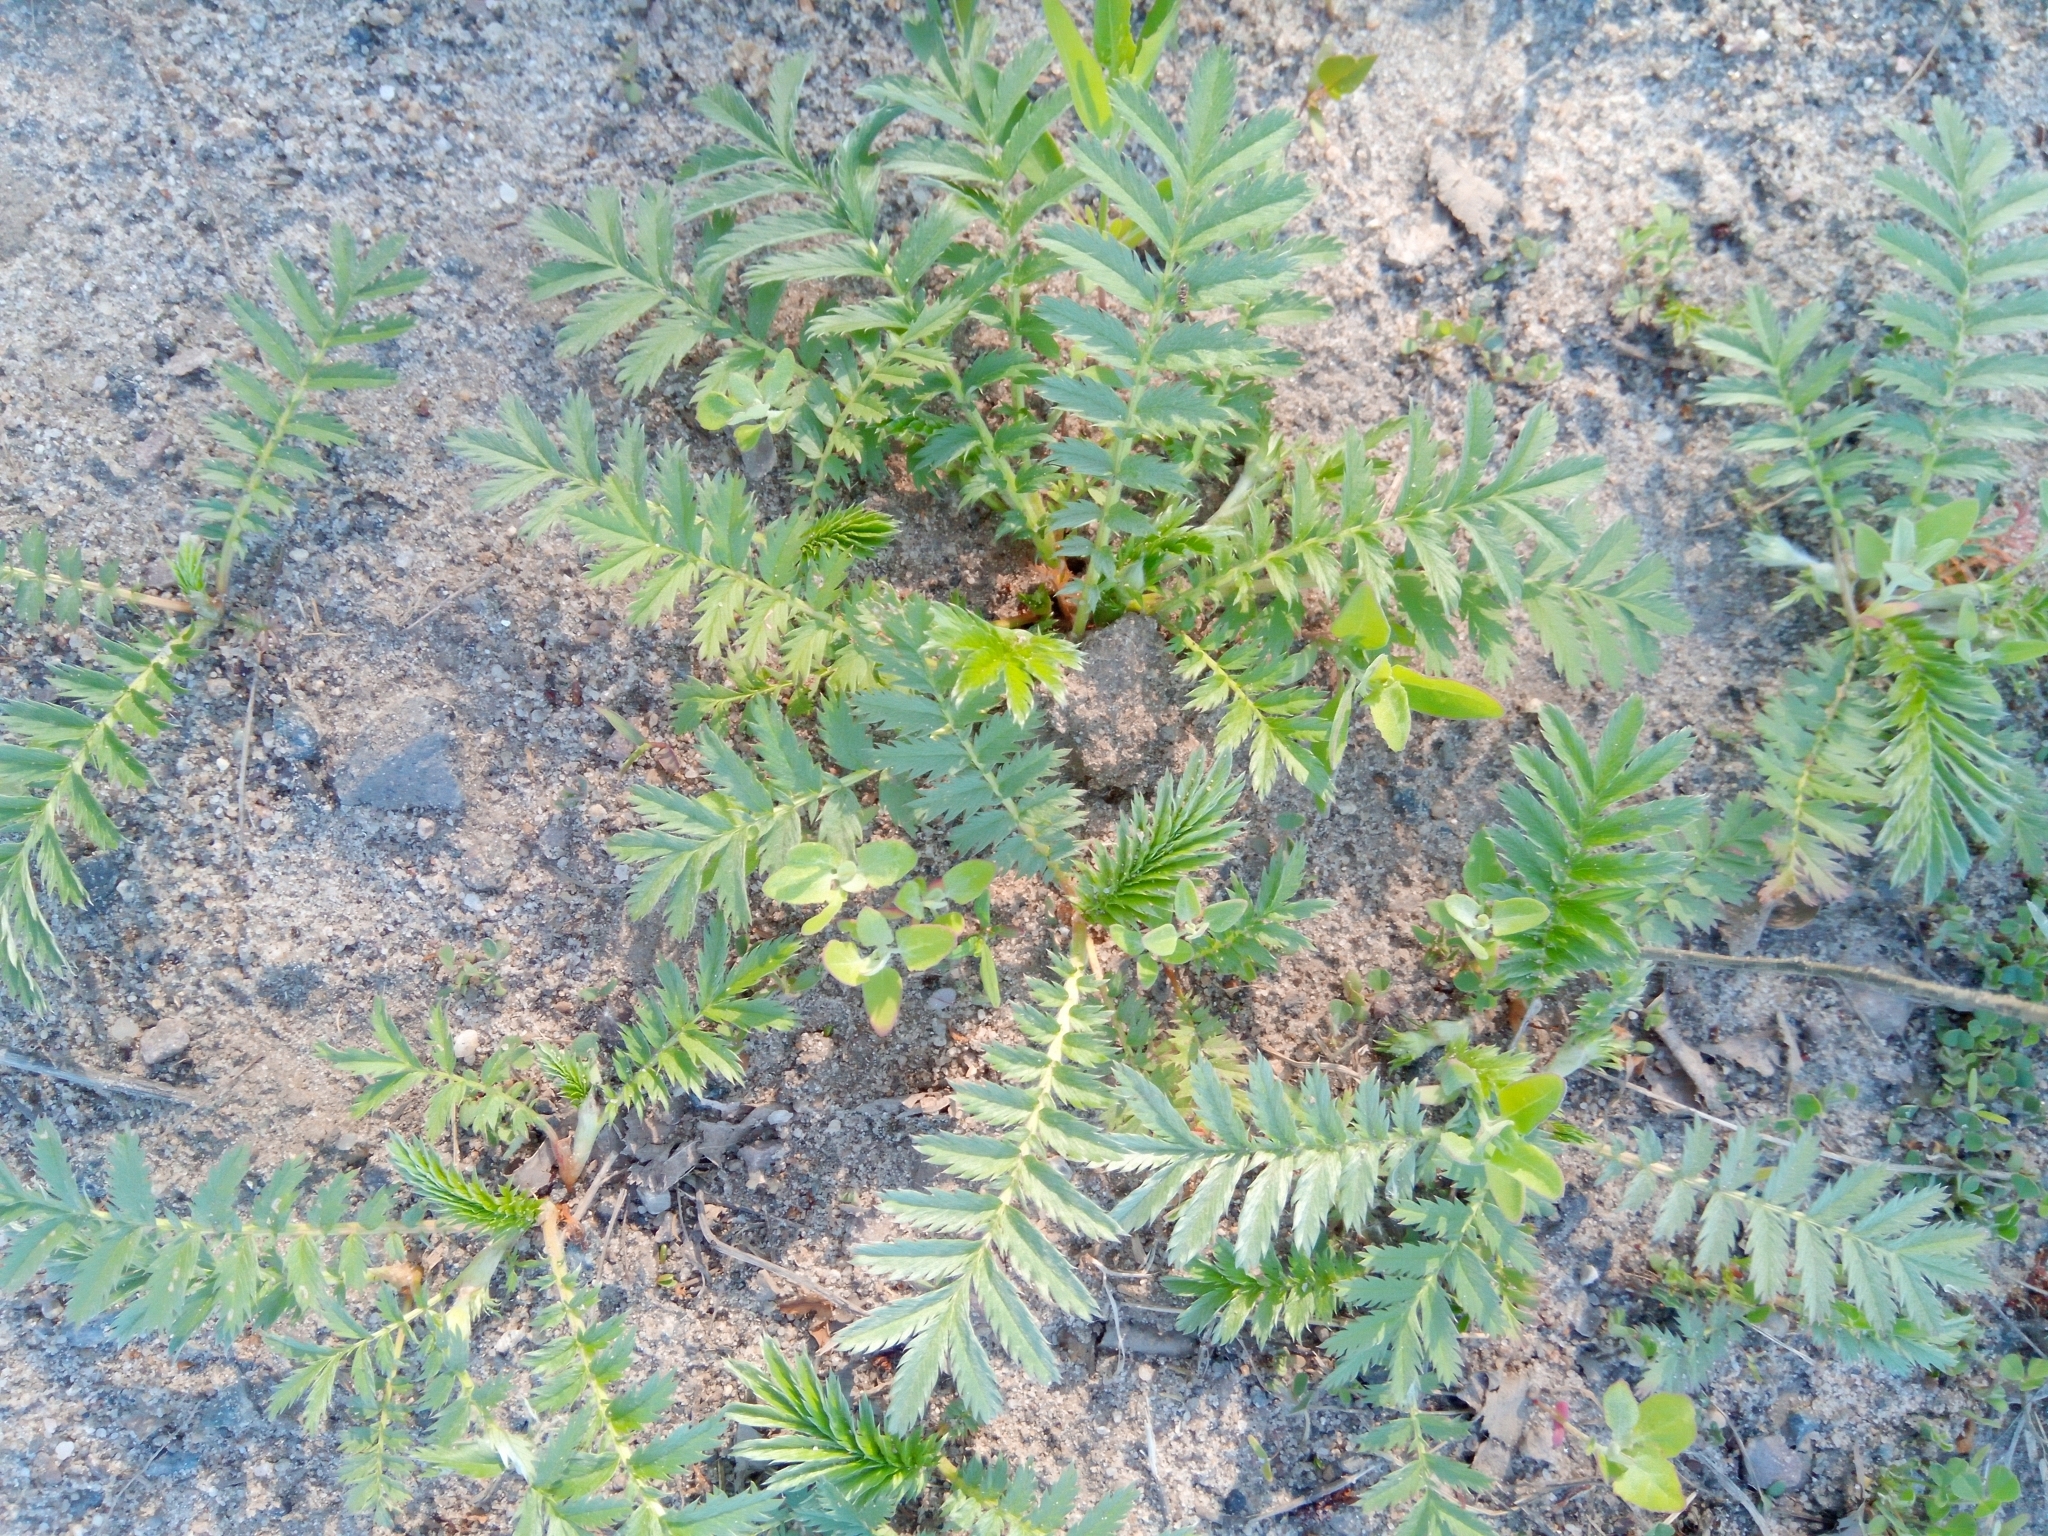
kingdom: Plantae
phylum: Tracheophyta
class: Magnoliopsida
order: Rosales
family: Rosaceae
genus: Argentina
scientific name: Argentina anserina
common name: Common silverweed
